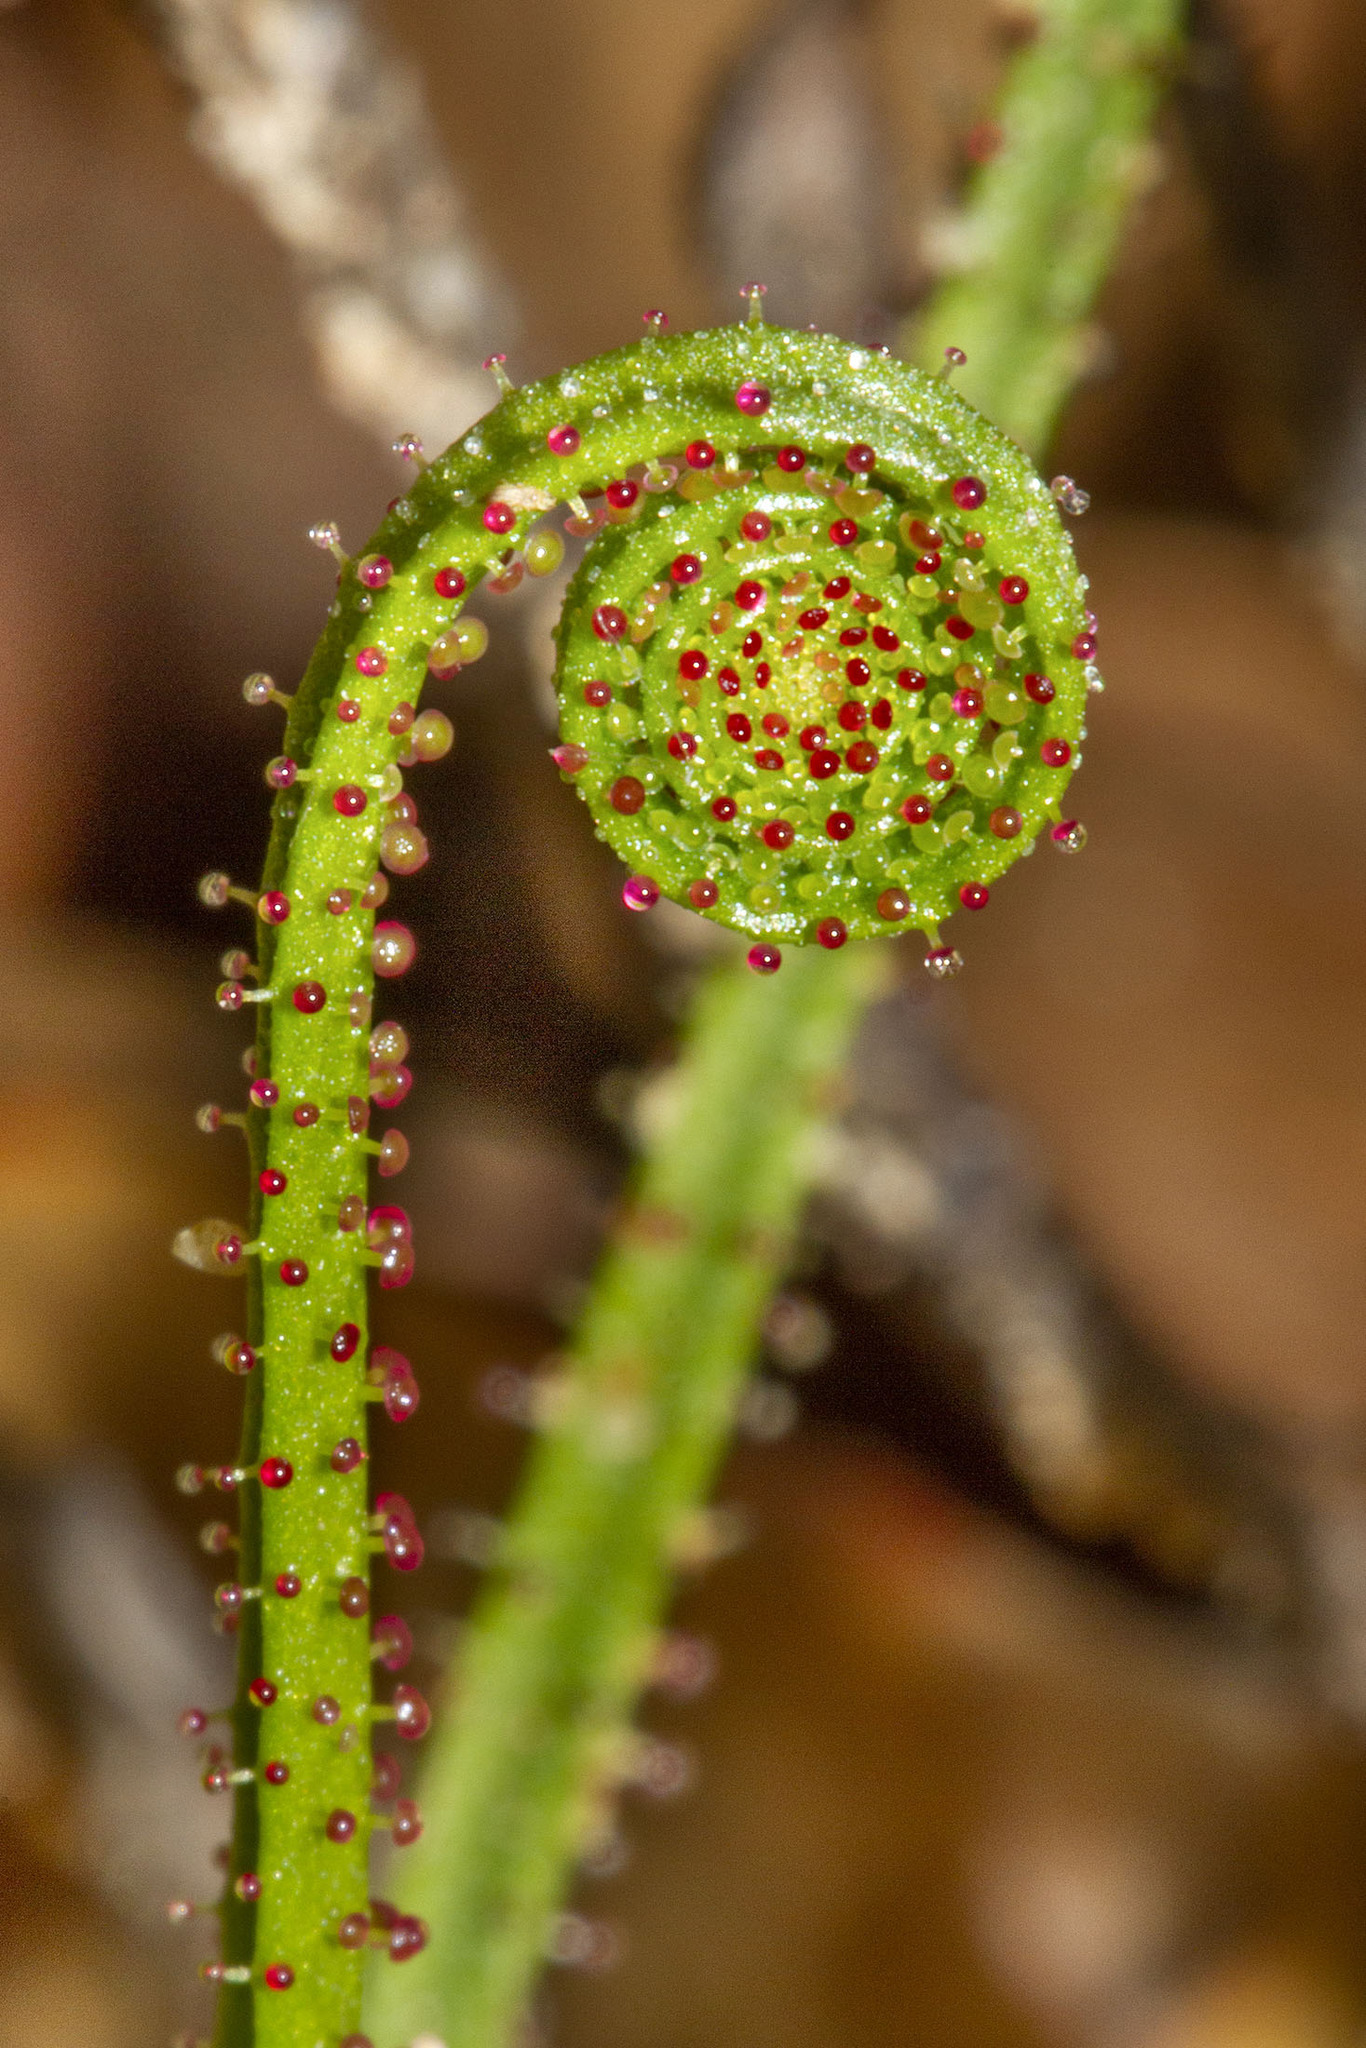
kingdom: Plantae
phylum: Tracheophyta
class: Magnoliopsida
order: Caryophyllales
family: Drosophyllaceae
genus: Drosophyllum
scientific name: Drosophyllum lusitanicum
